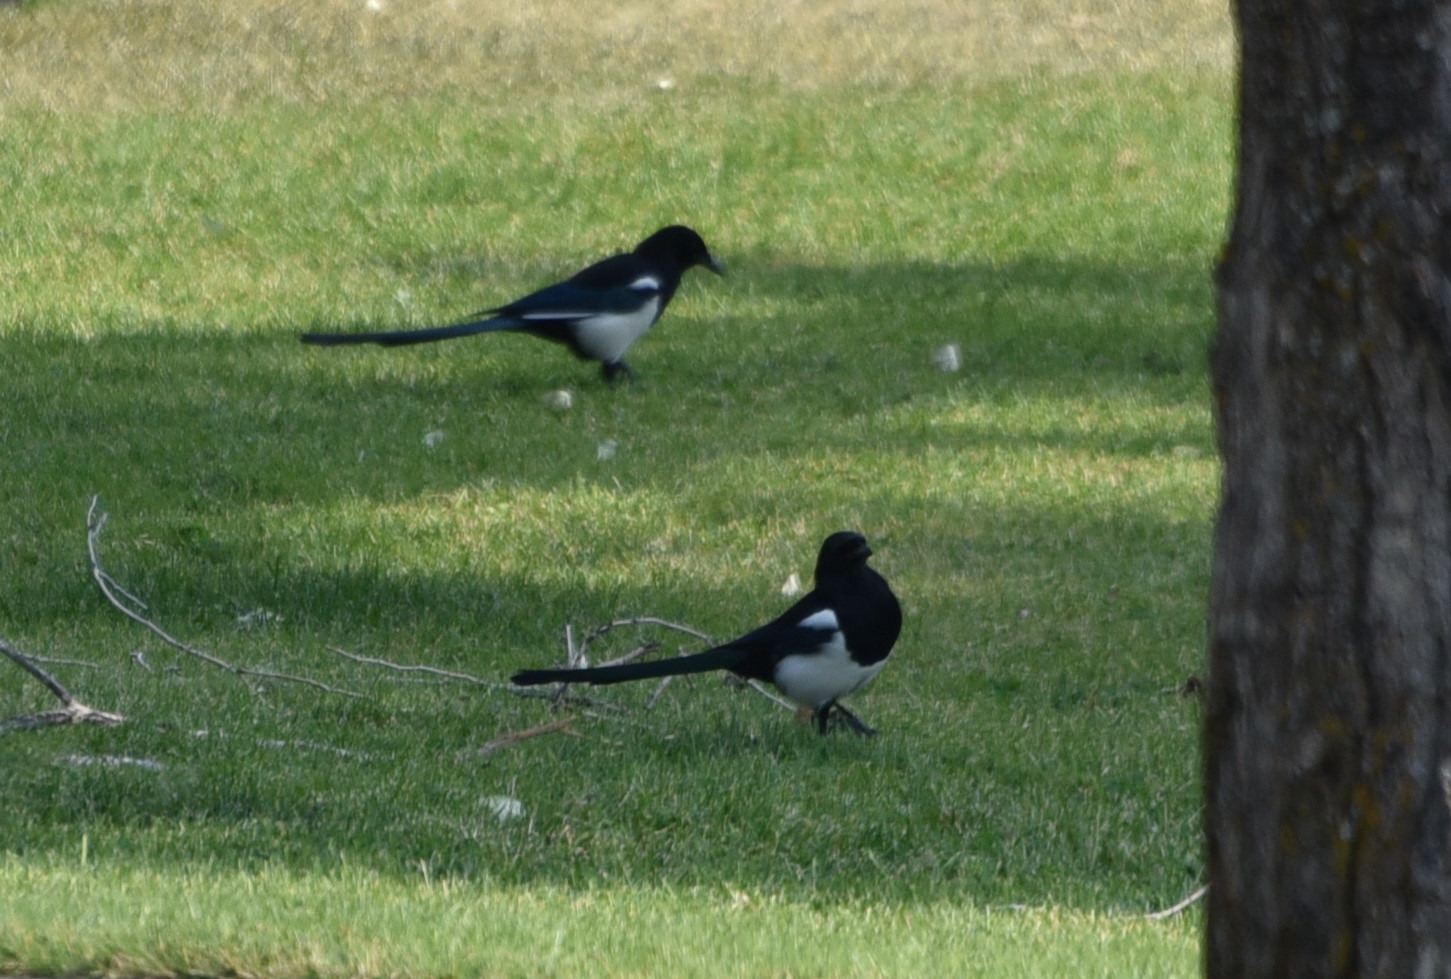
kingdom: Animalia
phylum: Chordata
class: Aves
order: Passeriformes
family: Corvidae
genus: Pica
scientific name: Pica hudsonia
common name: Black-billed magpie
